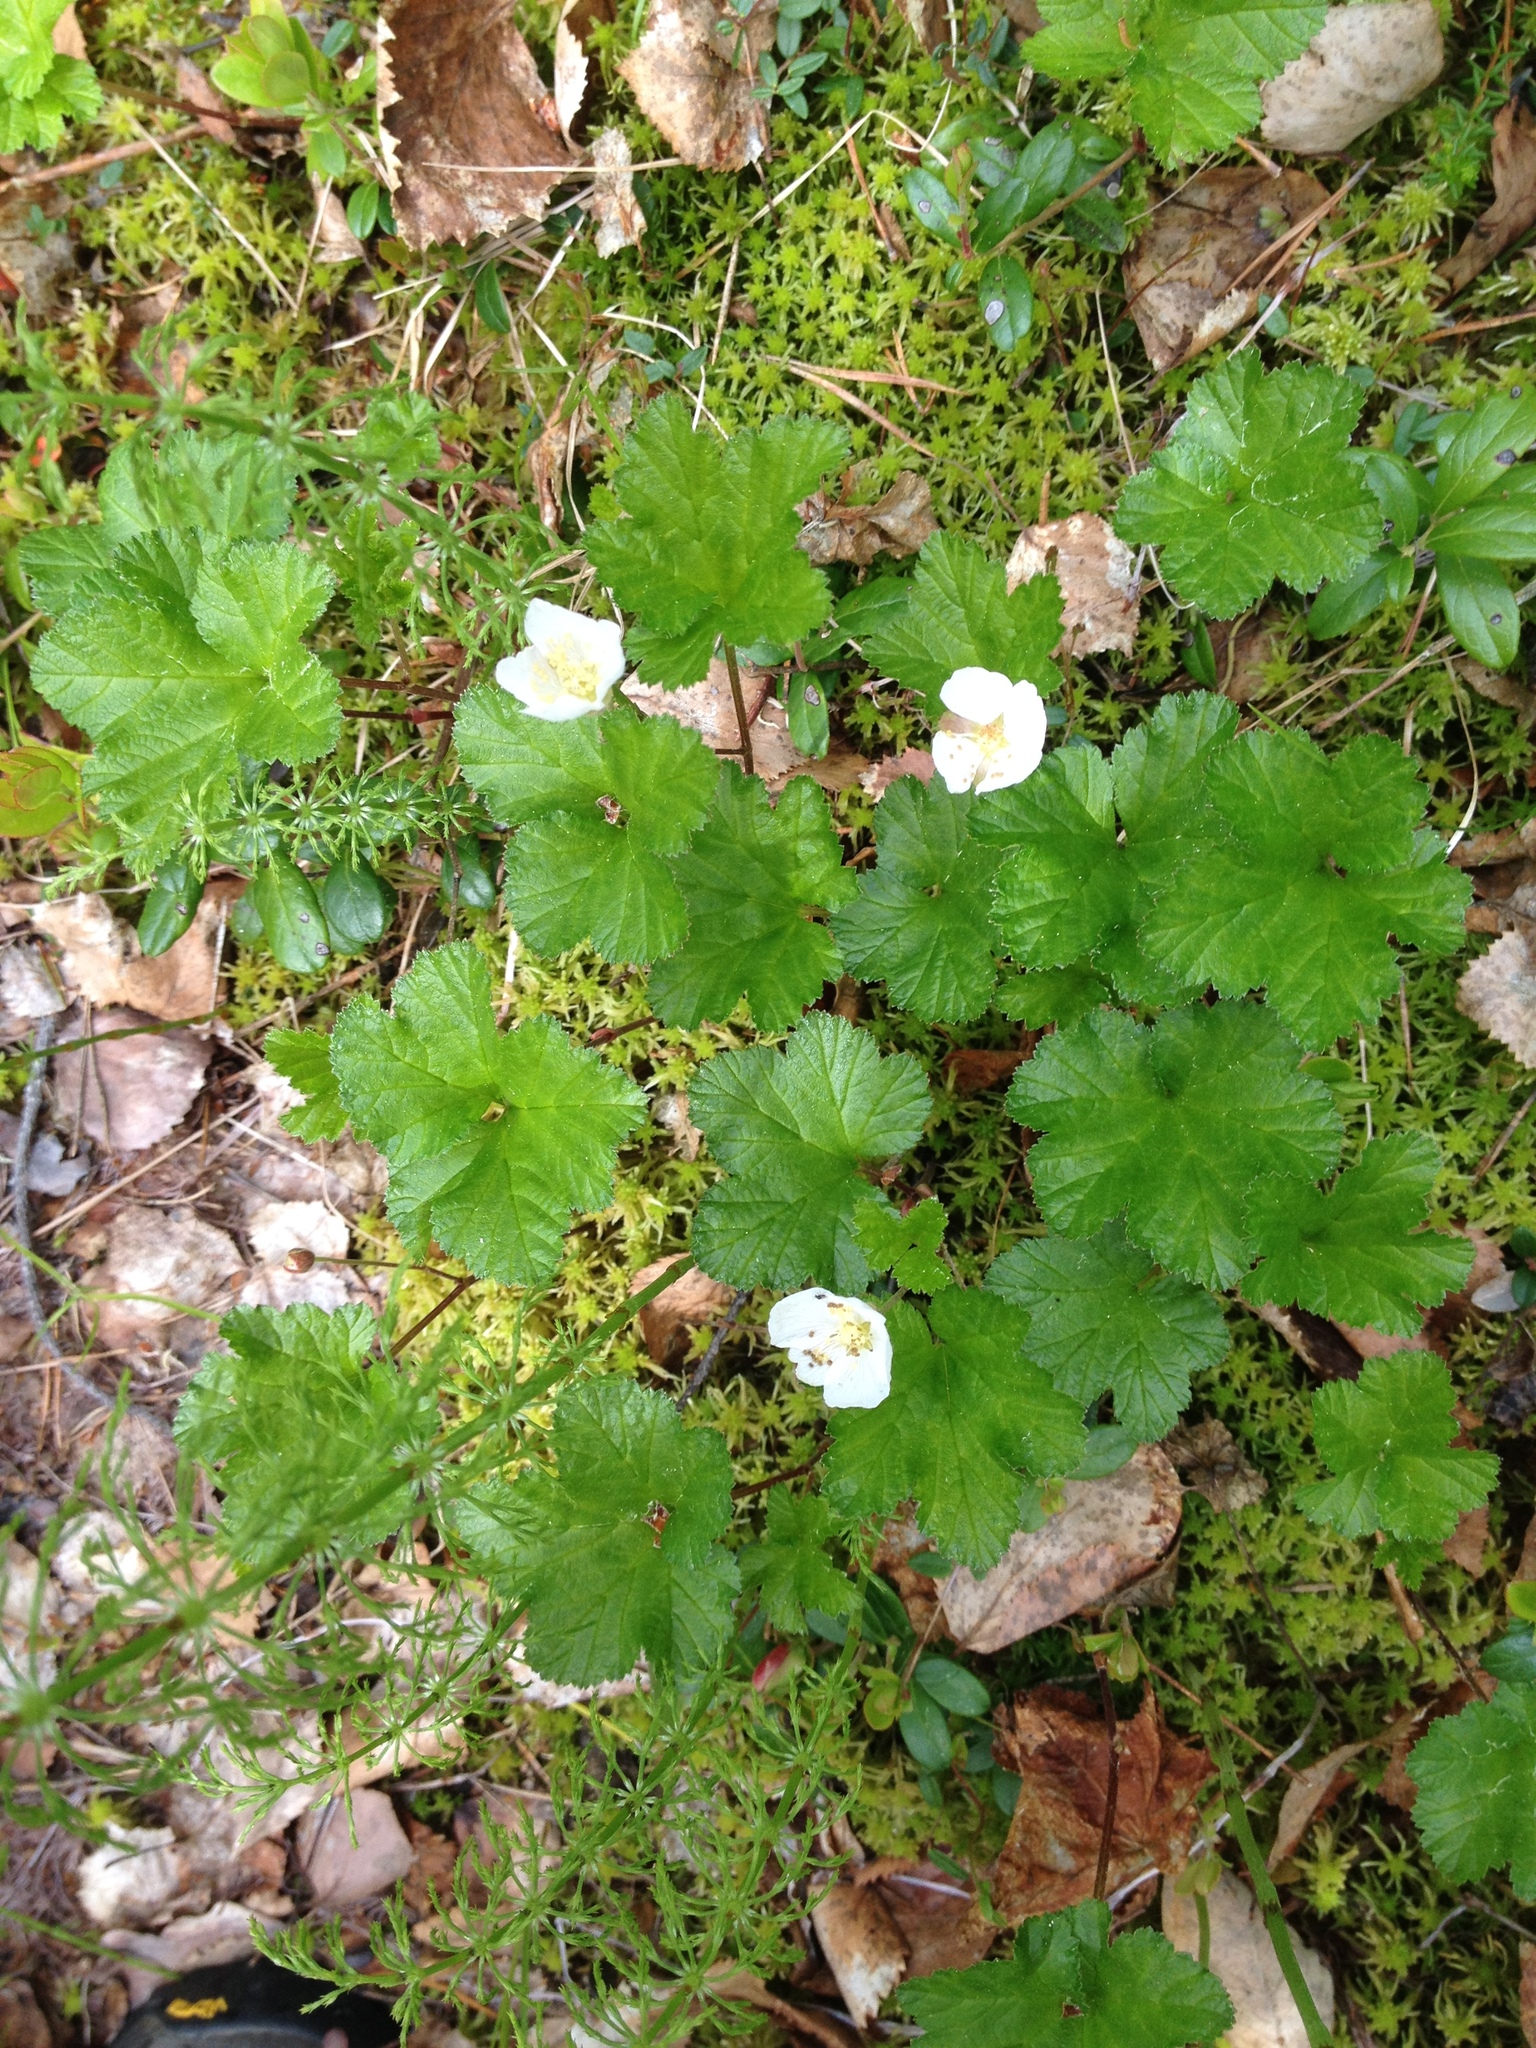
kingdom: Plantae
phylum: Tracheophyta
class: Magnoliopsida
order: Rosales
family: Rosaceae
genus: Rubus
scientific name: Rubus chamaemorus
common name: Cloudberry
